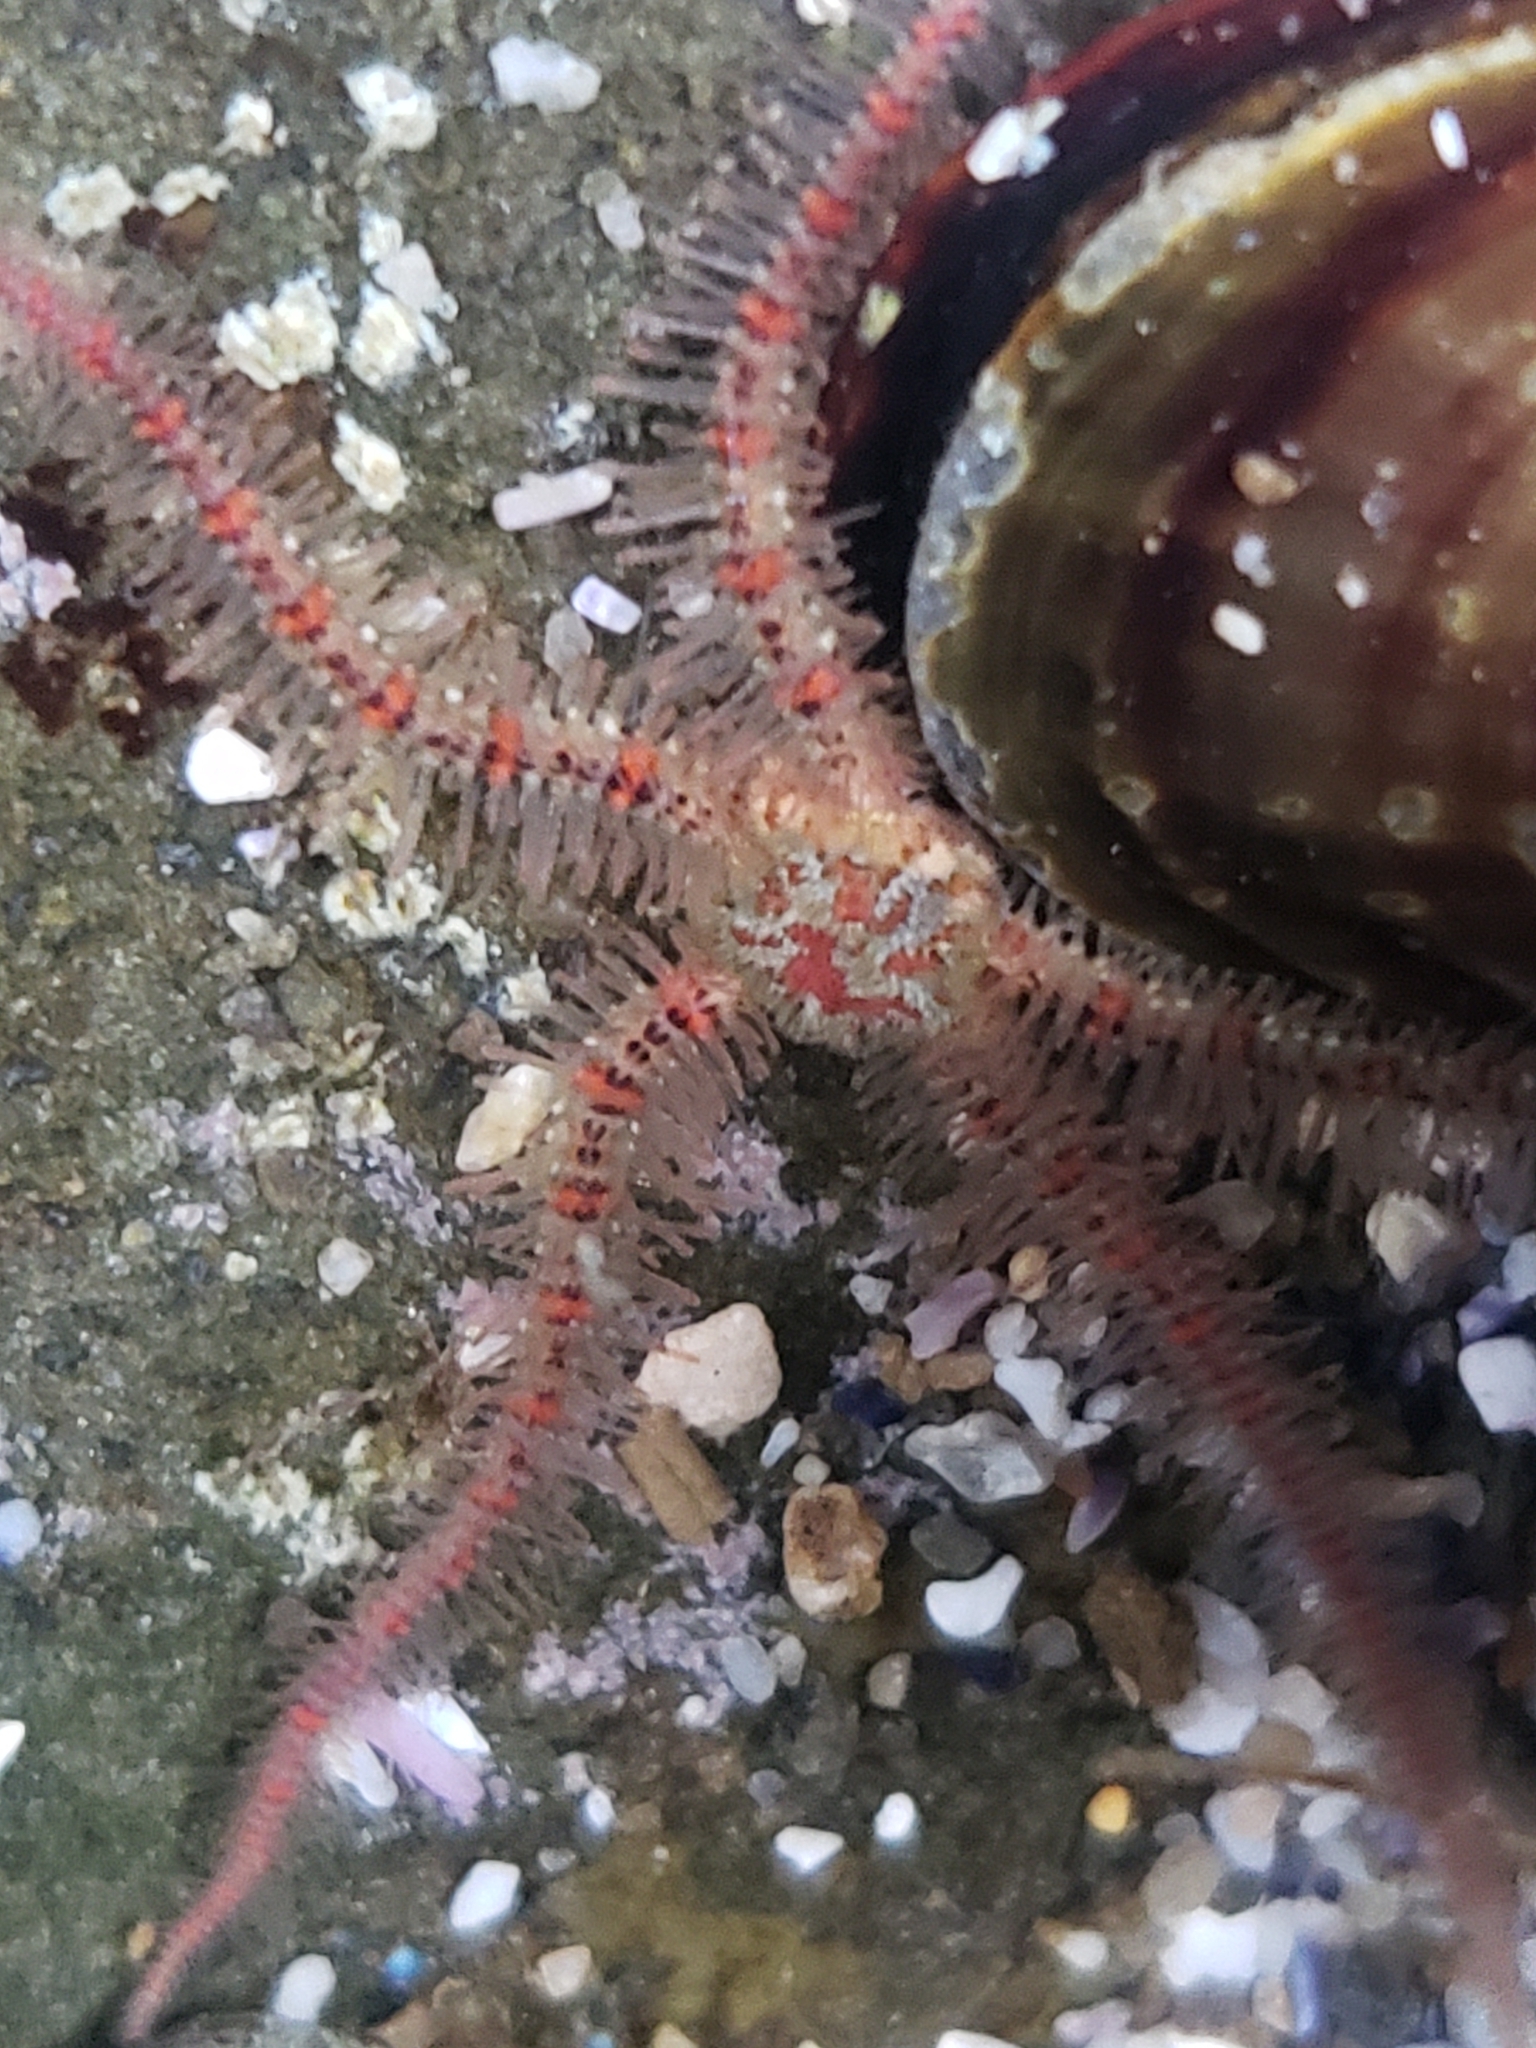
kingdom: Animalia
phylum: Echinodermata
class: Ophiuroidea
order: Amphilepidida
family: Ophiotrichidae
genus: Ophiothrix
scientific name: Ophiothrix spiculata
